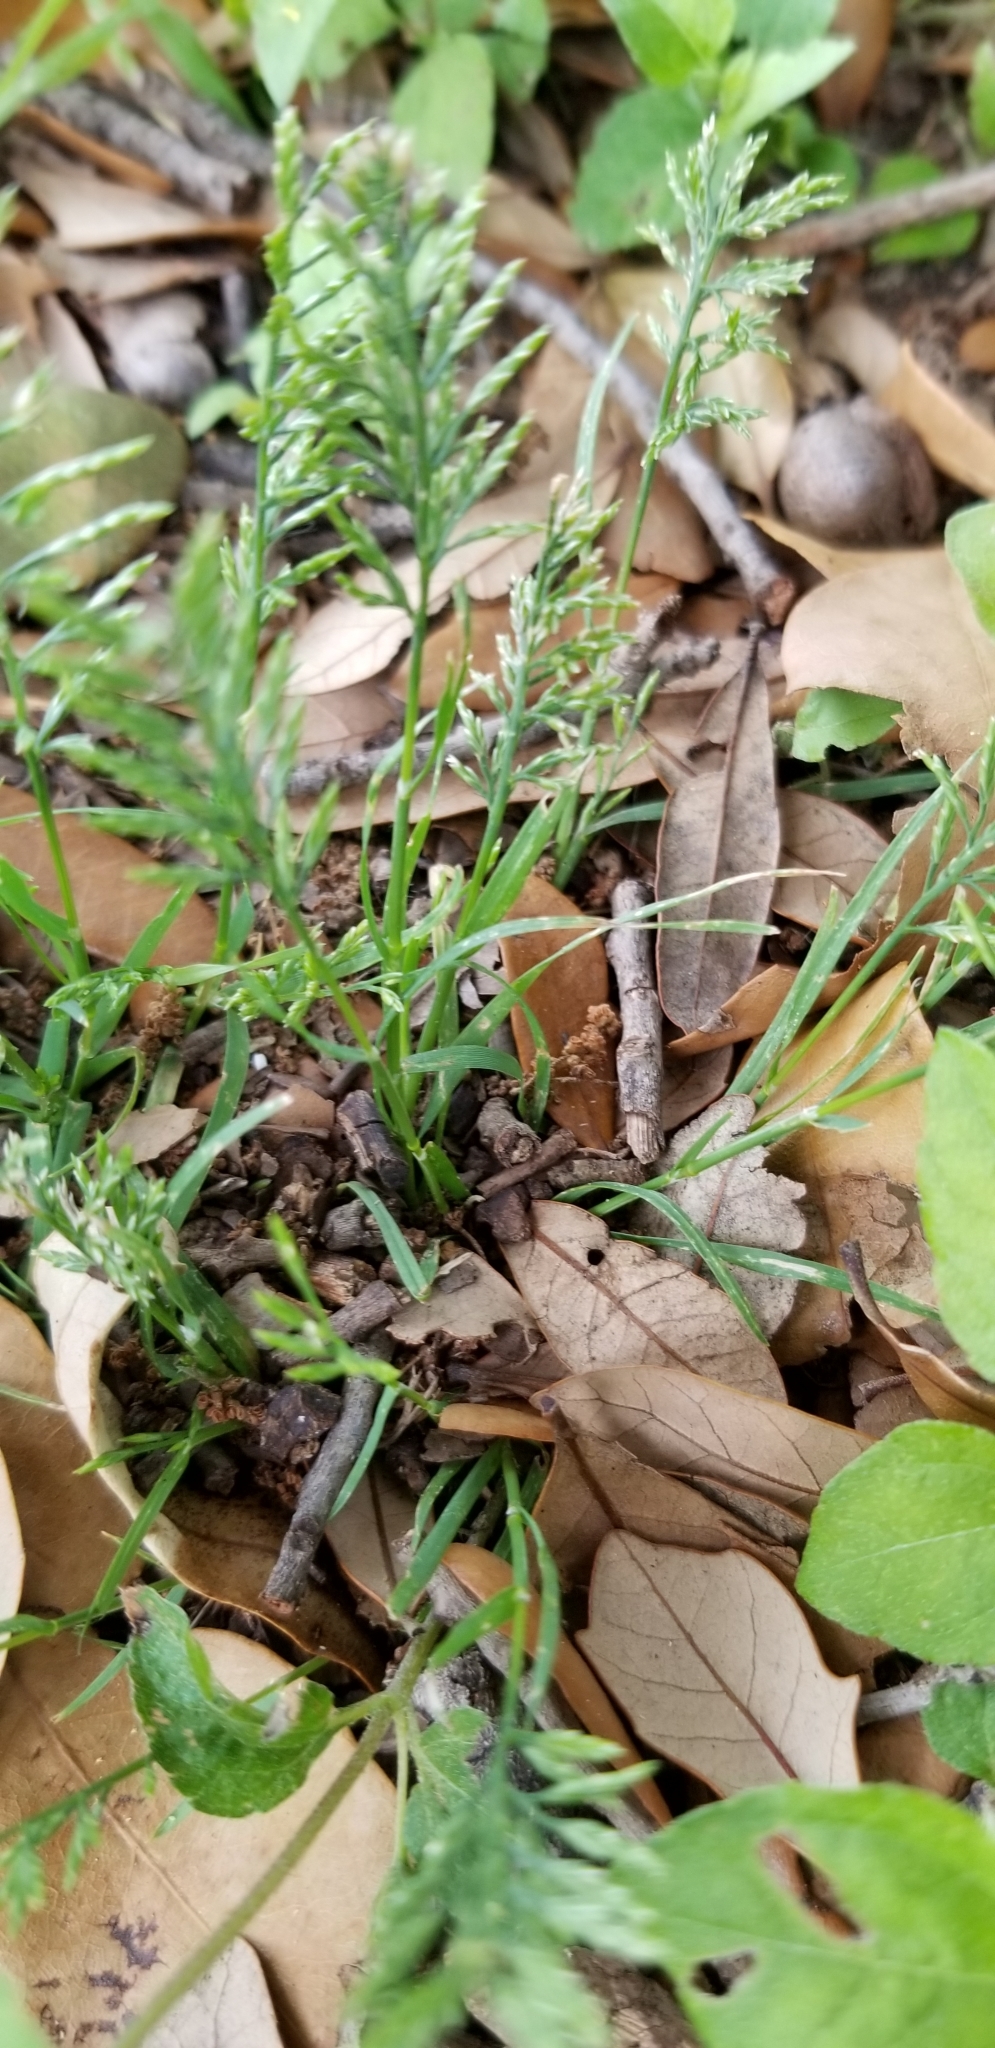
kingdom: Plantae
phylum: Tracheophyta
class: Liliopsida
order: Poales
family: Poaceae
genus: Catapodium
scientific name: Catapodium rigidum
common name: Fern-grass
